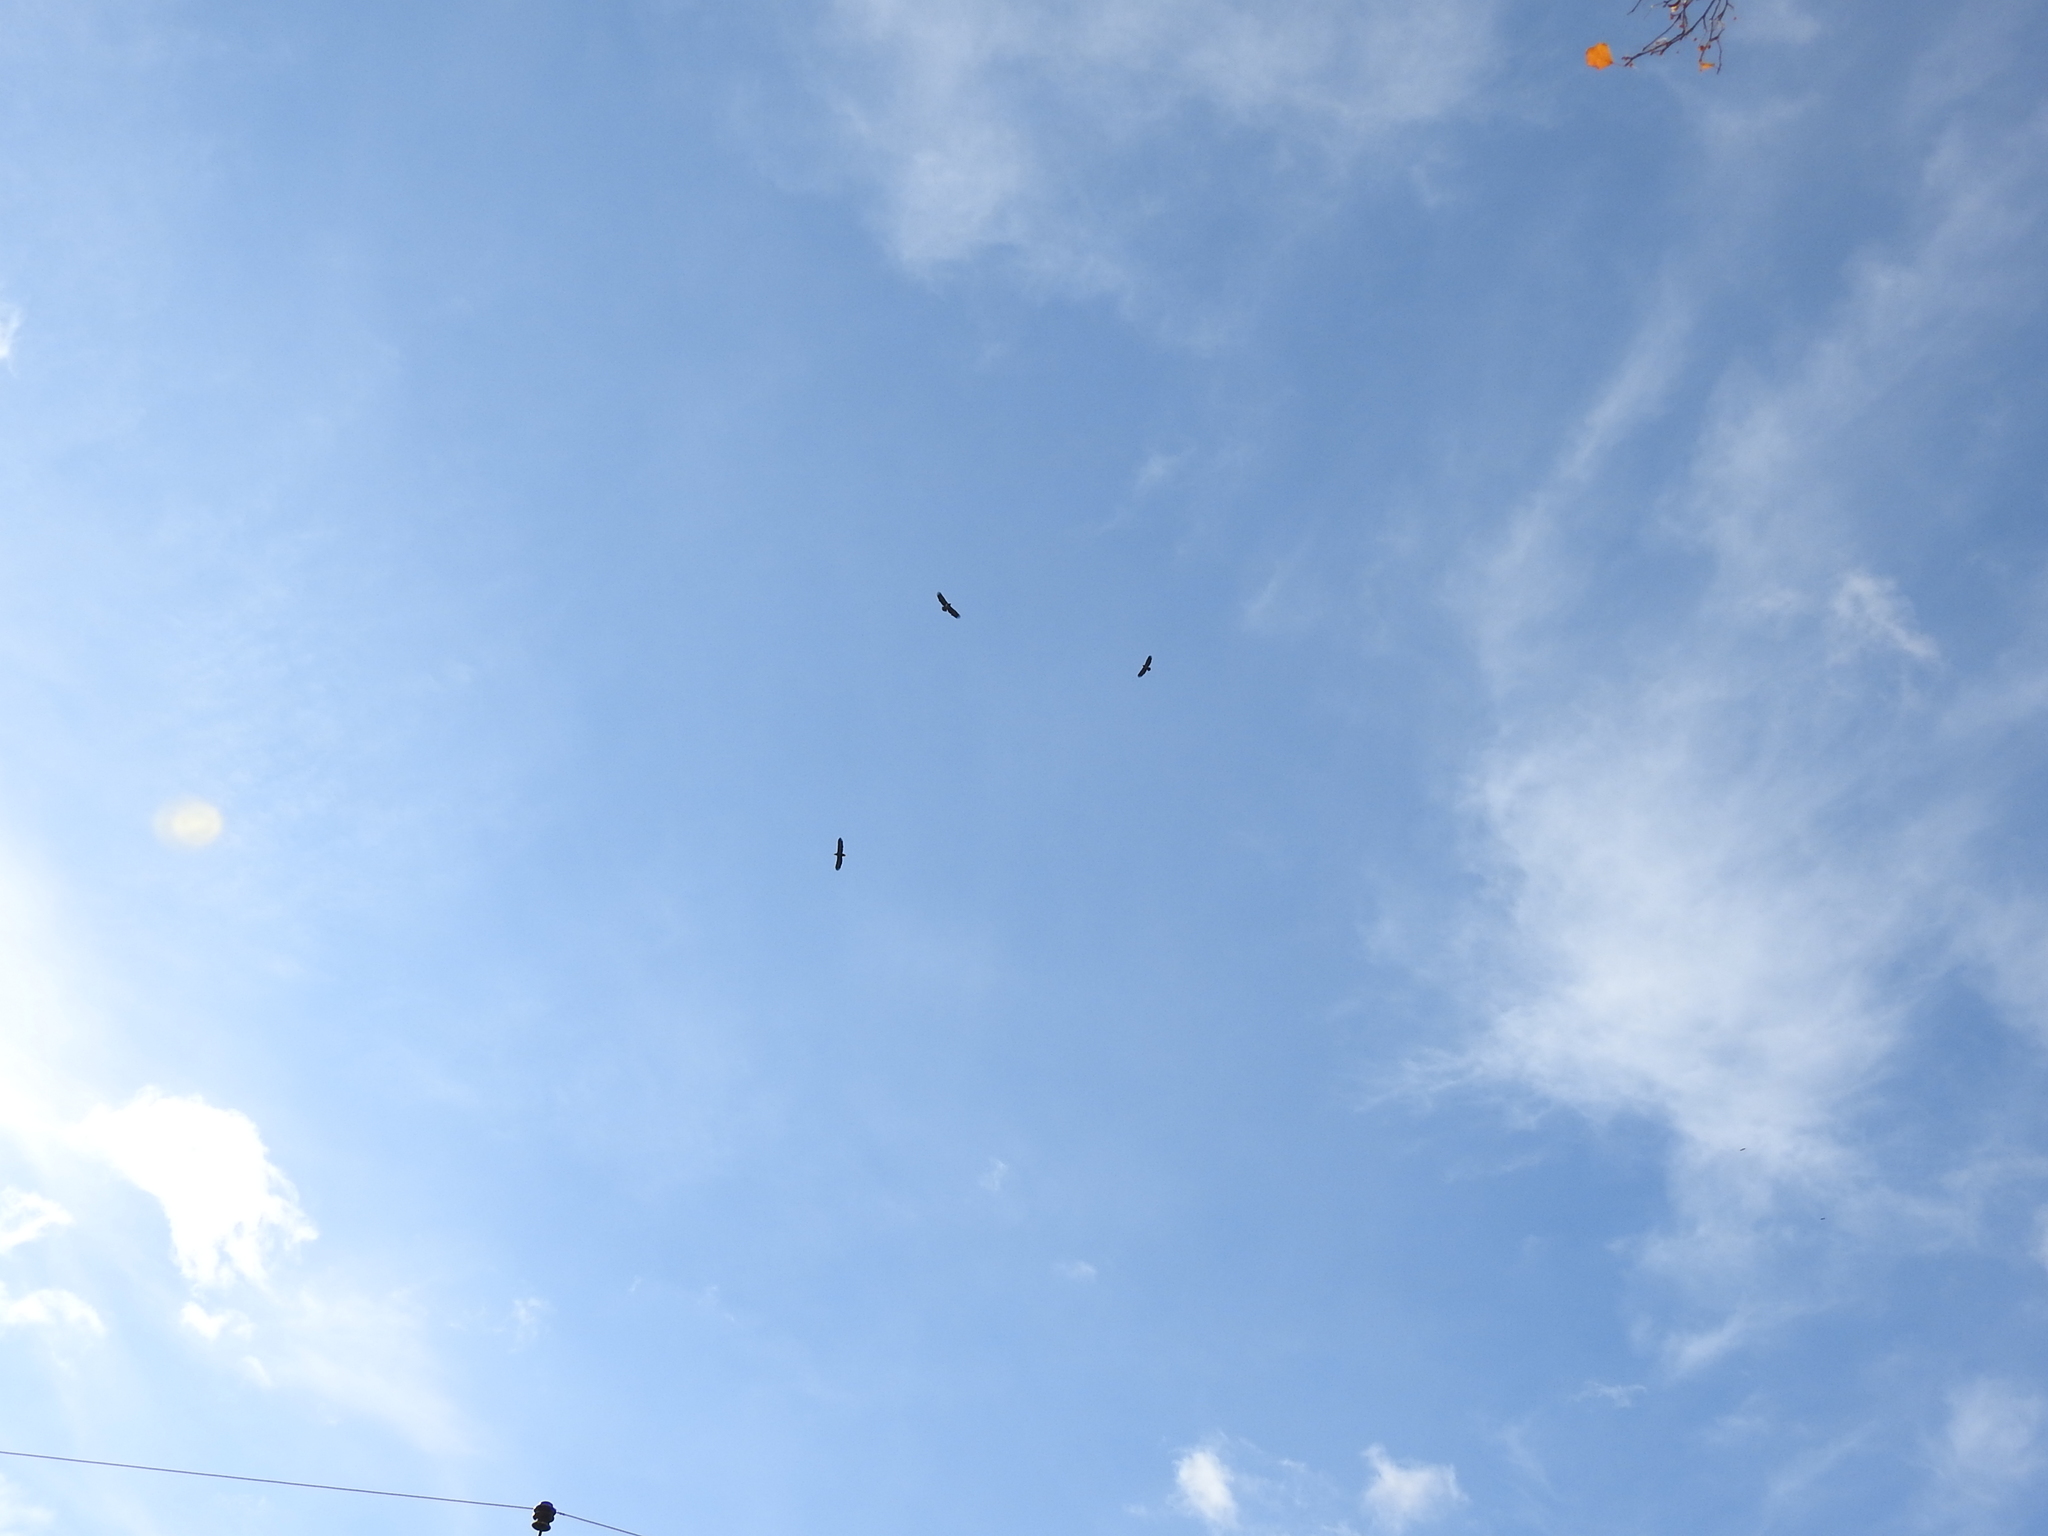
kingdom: Animalia
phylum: Chordata
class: Aves
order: Accipitriformes
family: Accipitridae
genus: Haliaeetus
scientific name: Haliaeetus albicilla
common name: White-tailed eagle
